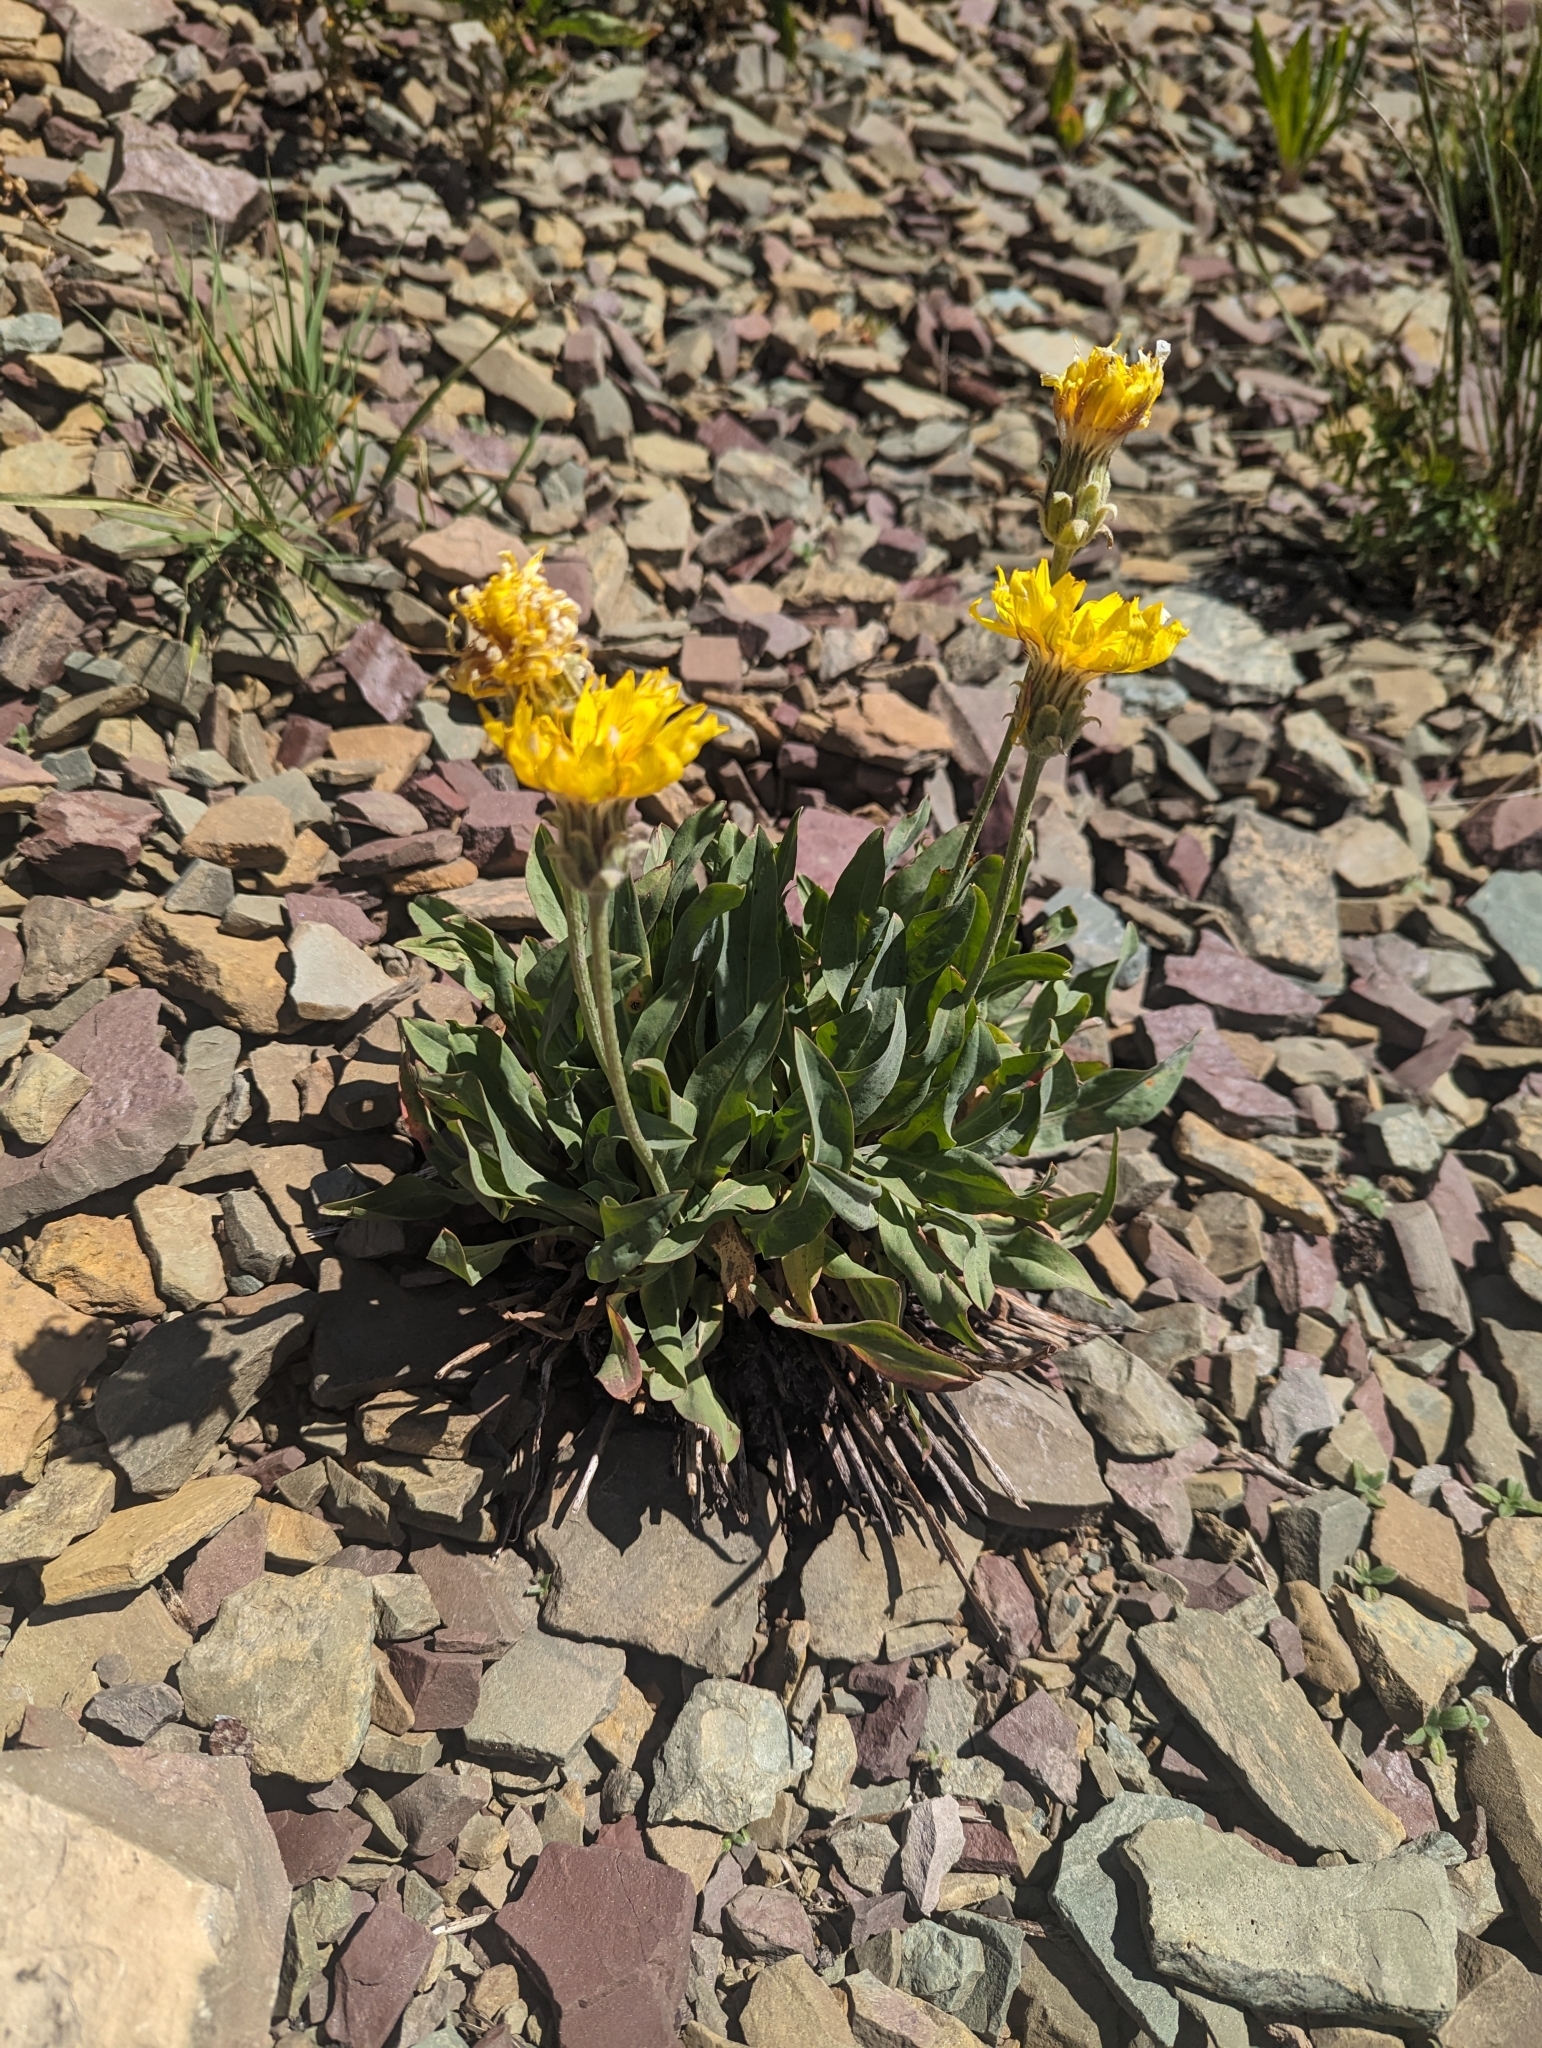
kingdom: Plantae
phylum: Tracheophyta
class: Magnoliopsida
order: Asterales
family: Asteraceae
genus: Agoseris
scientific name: Agoseris glauca
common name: Prairie agoseris
